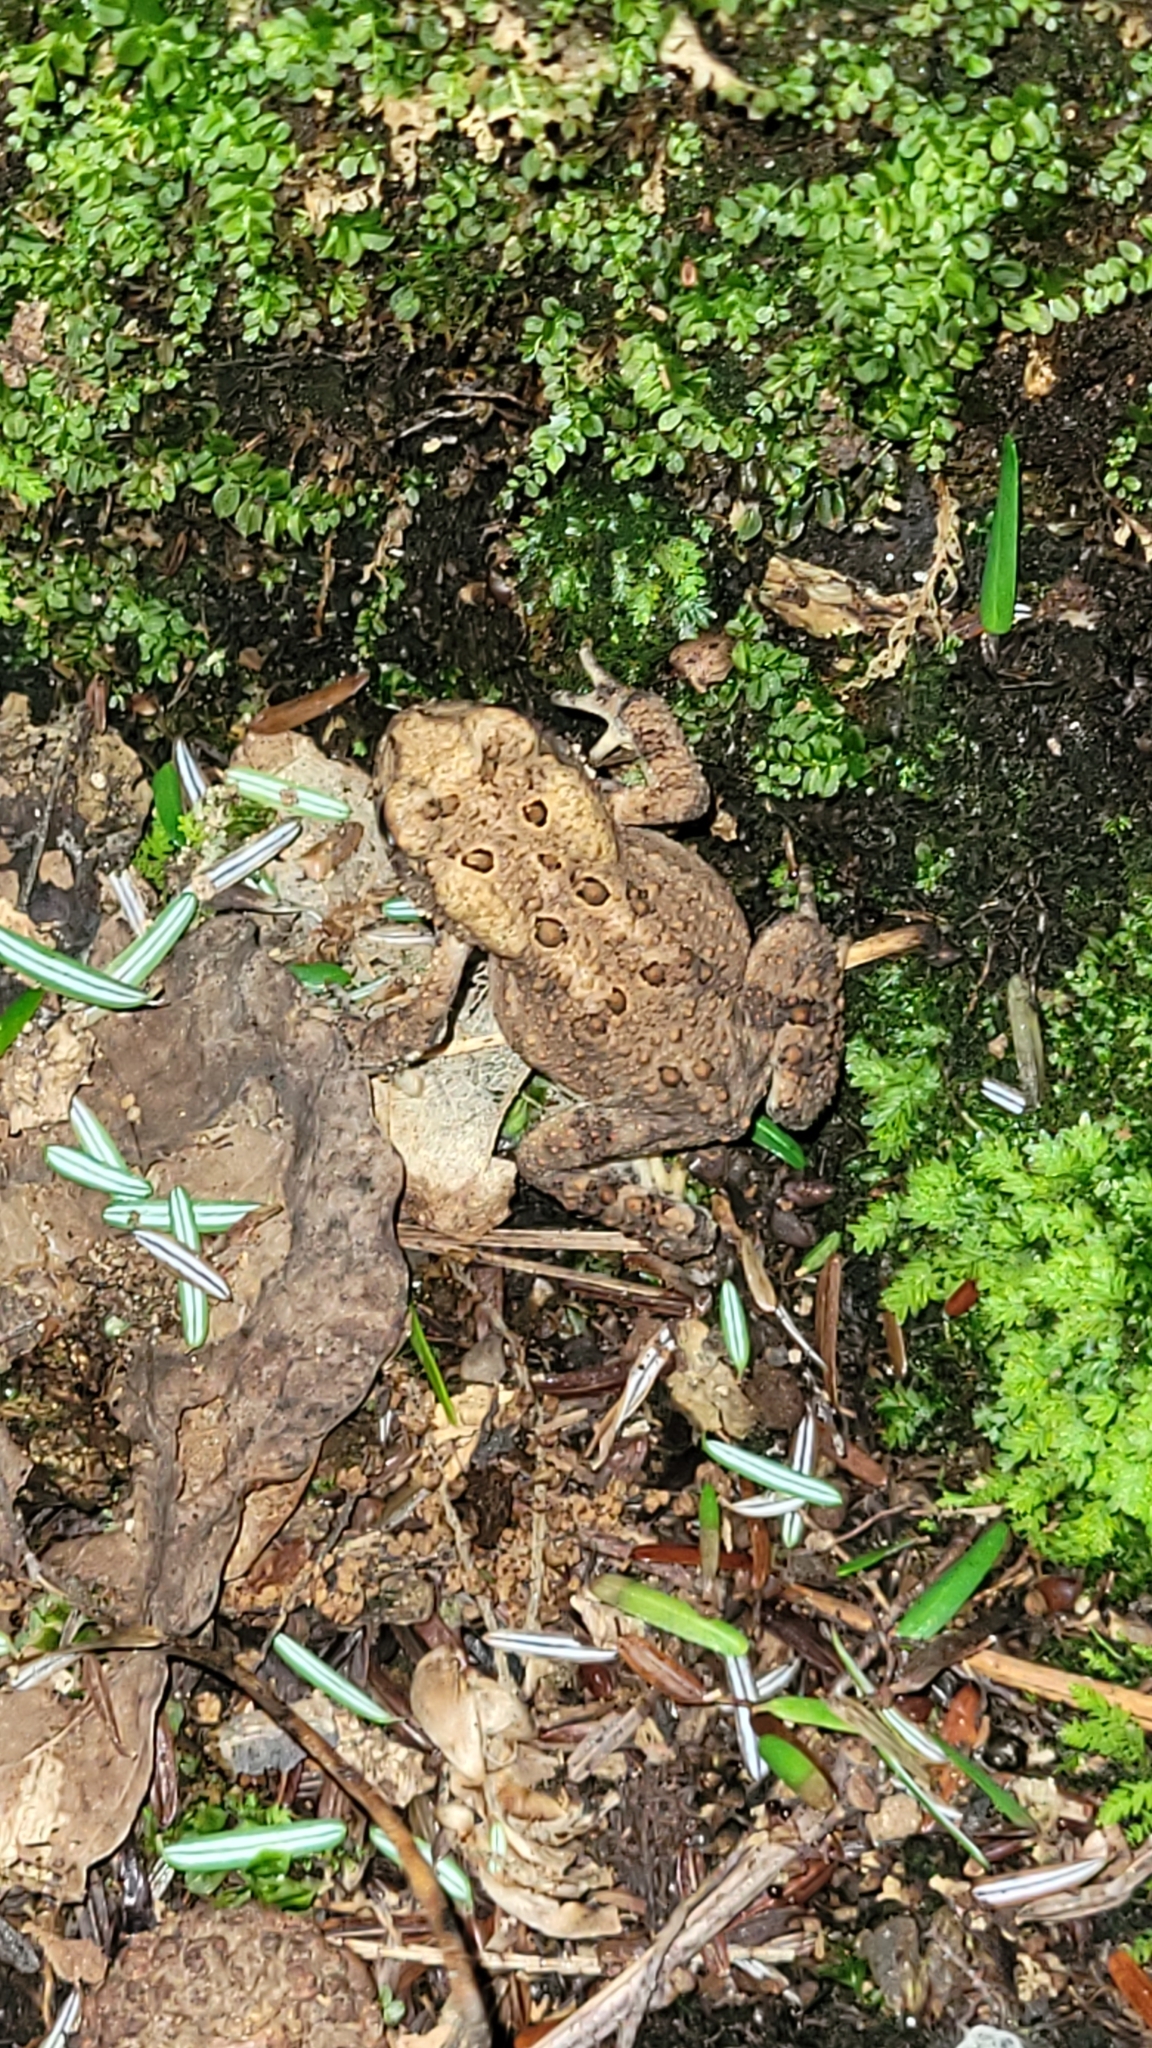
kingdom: Animalia
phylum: Chordata
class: Amphibia
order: Anura
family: Bufonidae
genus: Anaxyrus
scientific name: Anaxyrus americanus
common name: American toad
